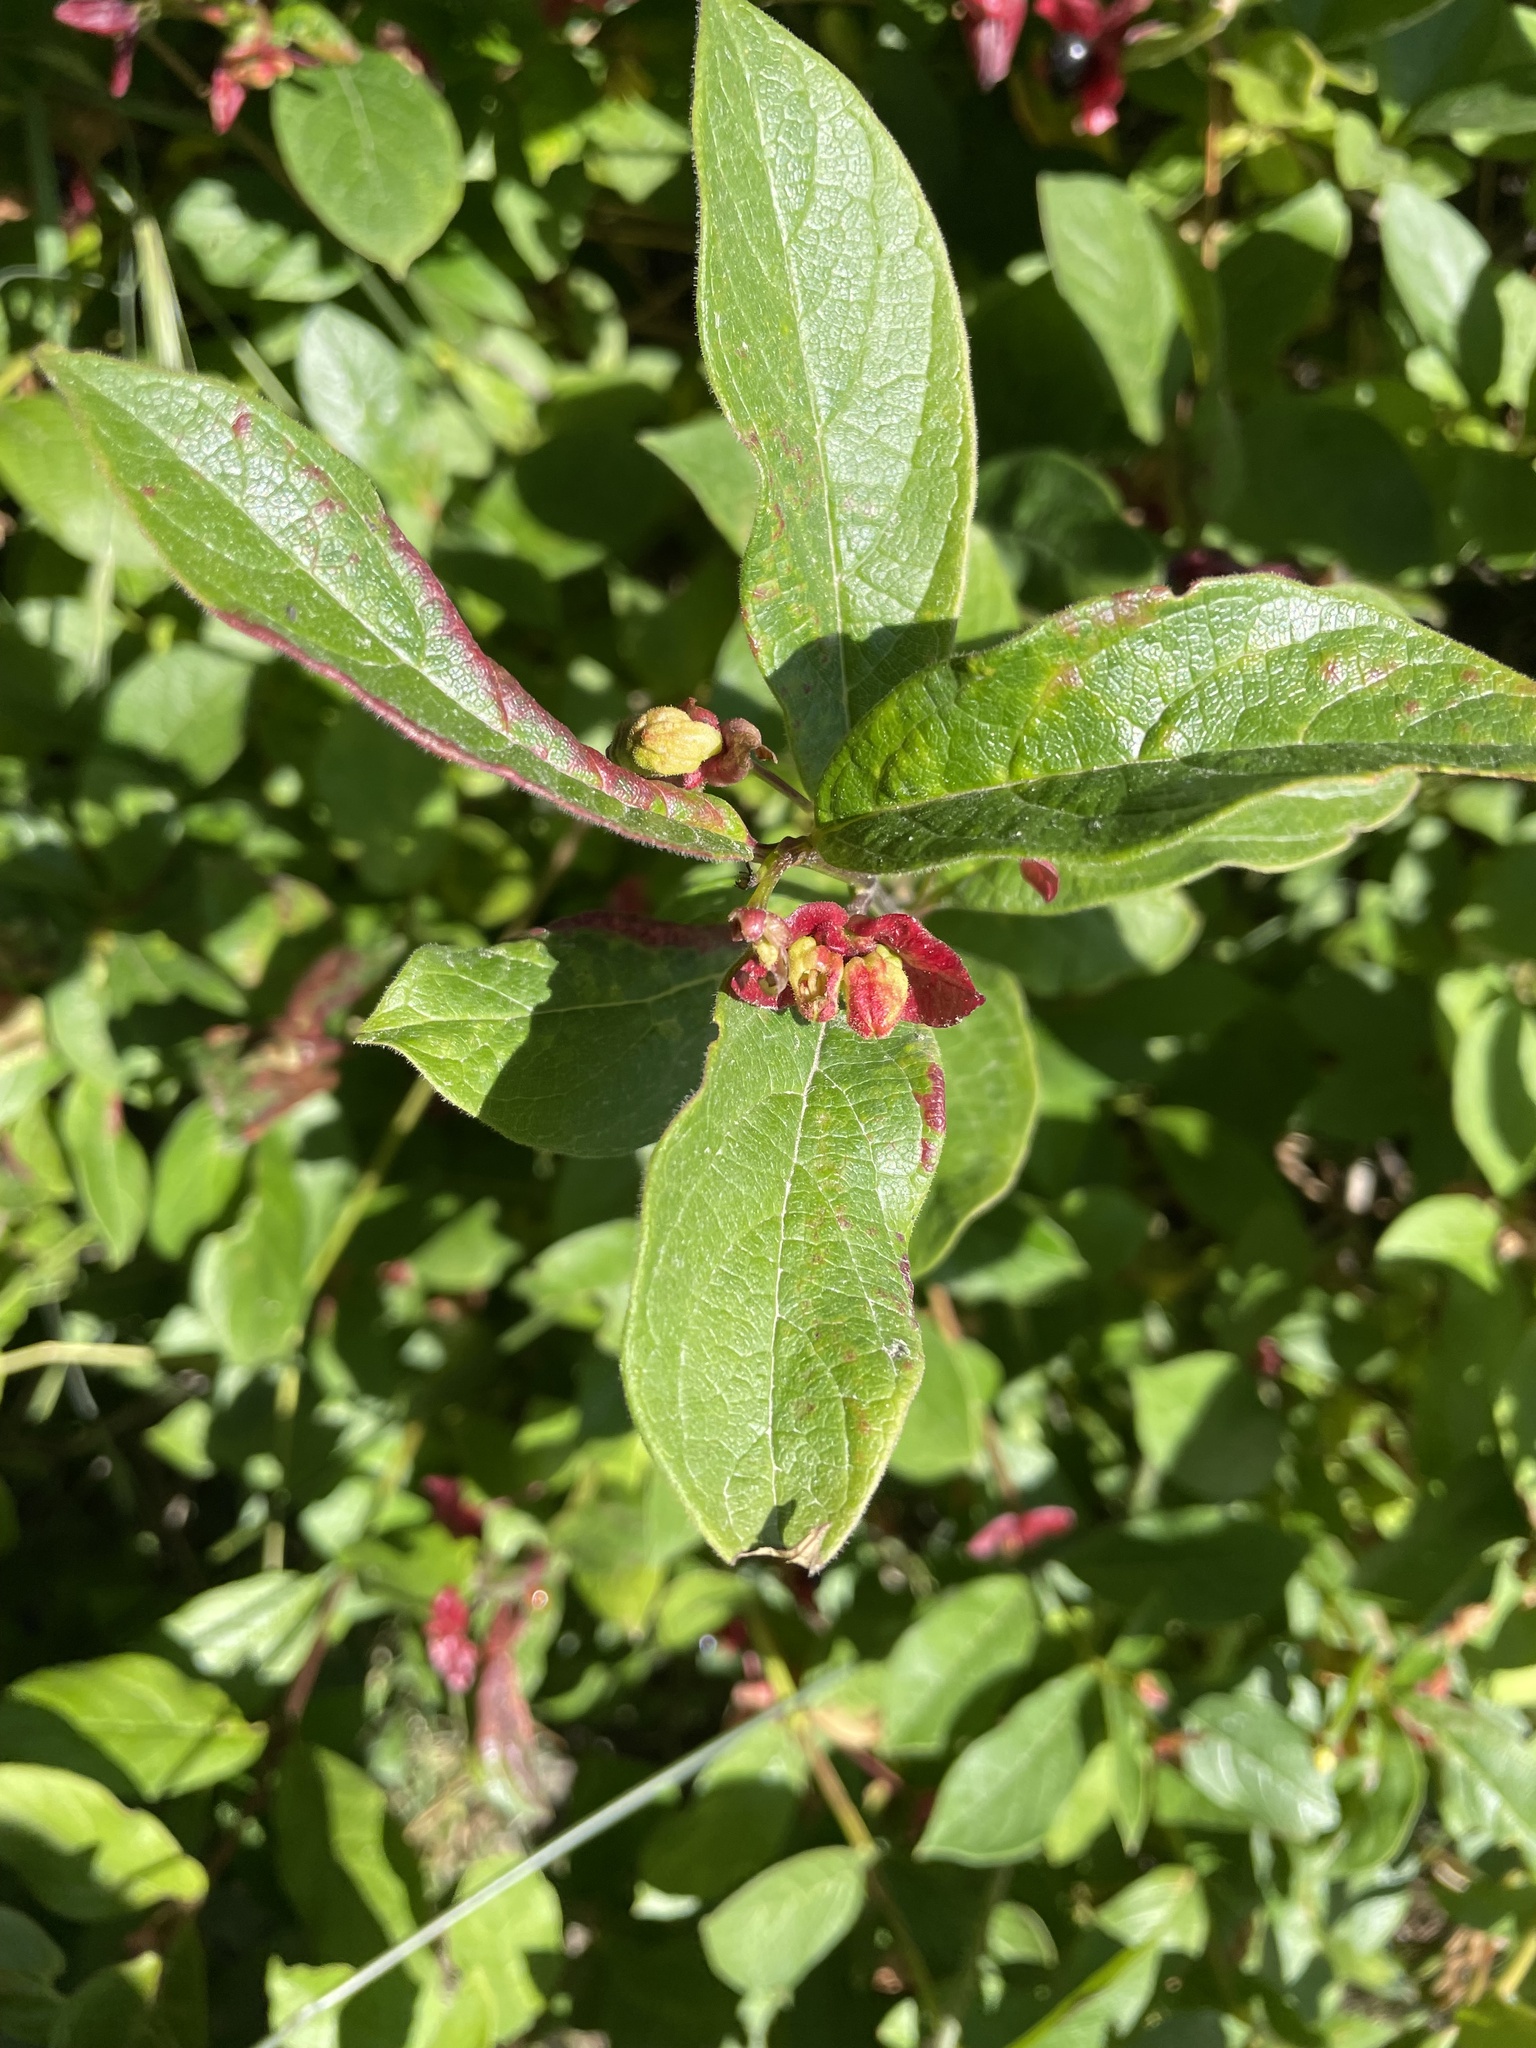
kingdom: Plantae
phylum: Tracheophyta
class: Magnoliopsida
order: Dipsacales
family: Caprifoliaceae
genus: Lonicera
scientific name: Lonicera involucrata
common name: Californian honeysuckle
